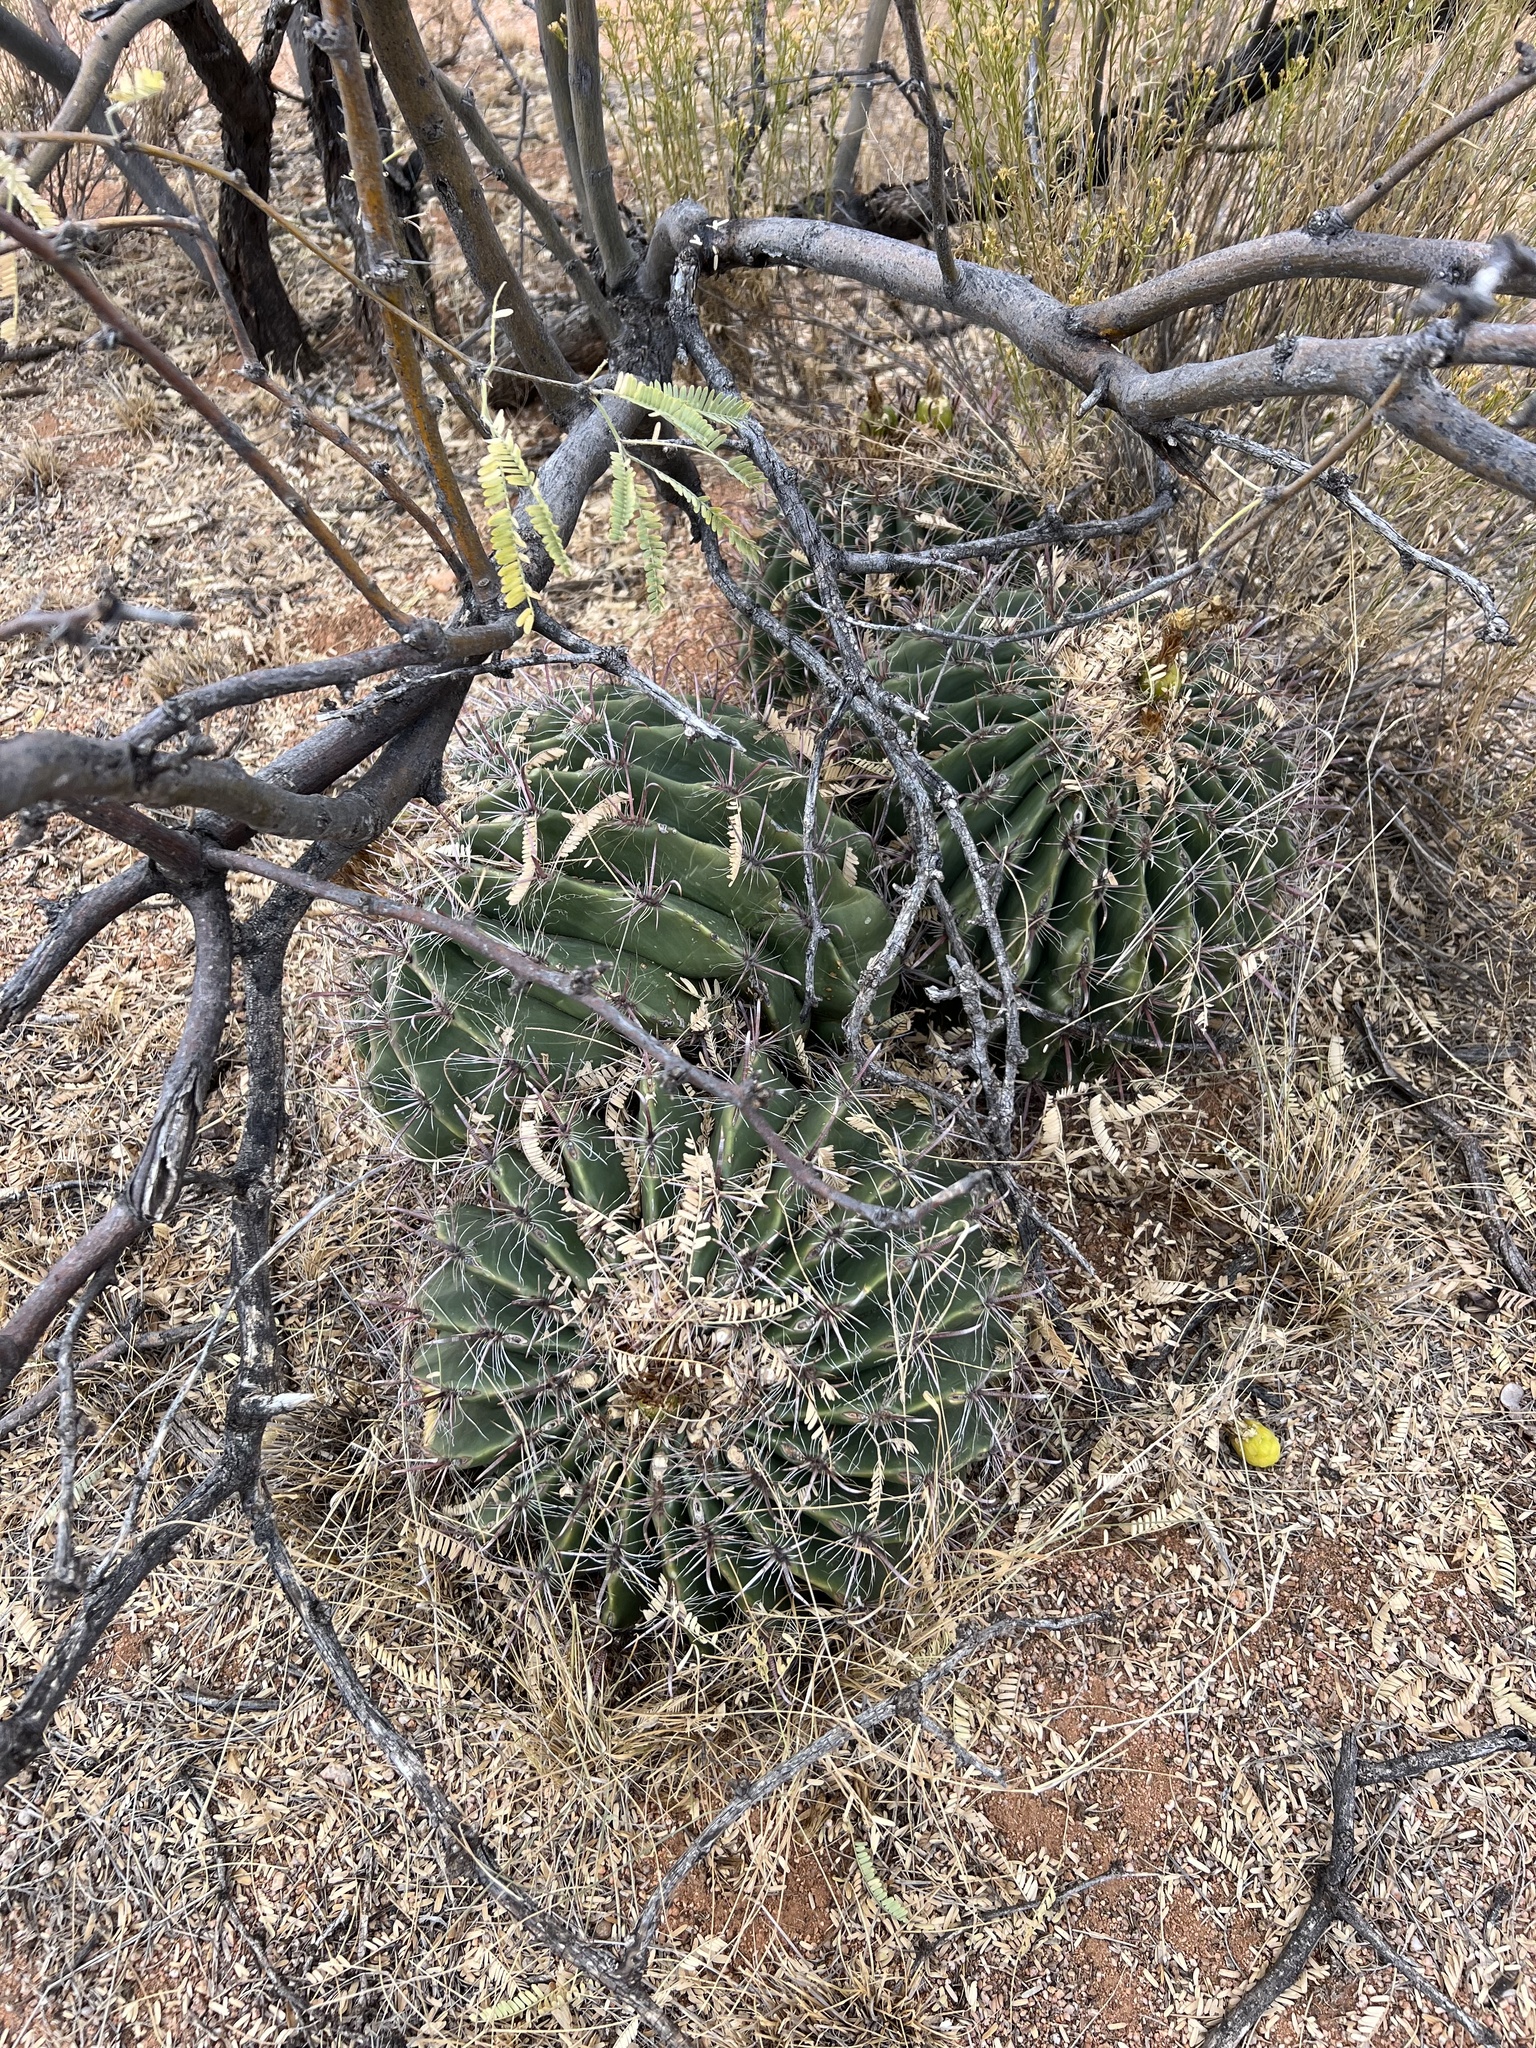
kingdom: Plantae
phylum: Tracheophyta
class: Magnoliopsida
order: Caryophyllales
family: Cactaceae
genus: Ferocactus
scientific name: Ferocactus wislizeni
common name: Candy barrel cactus
